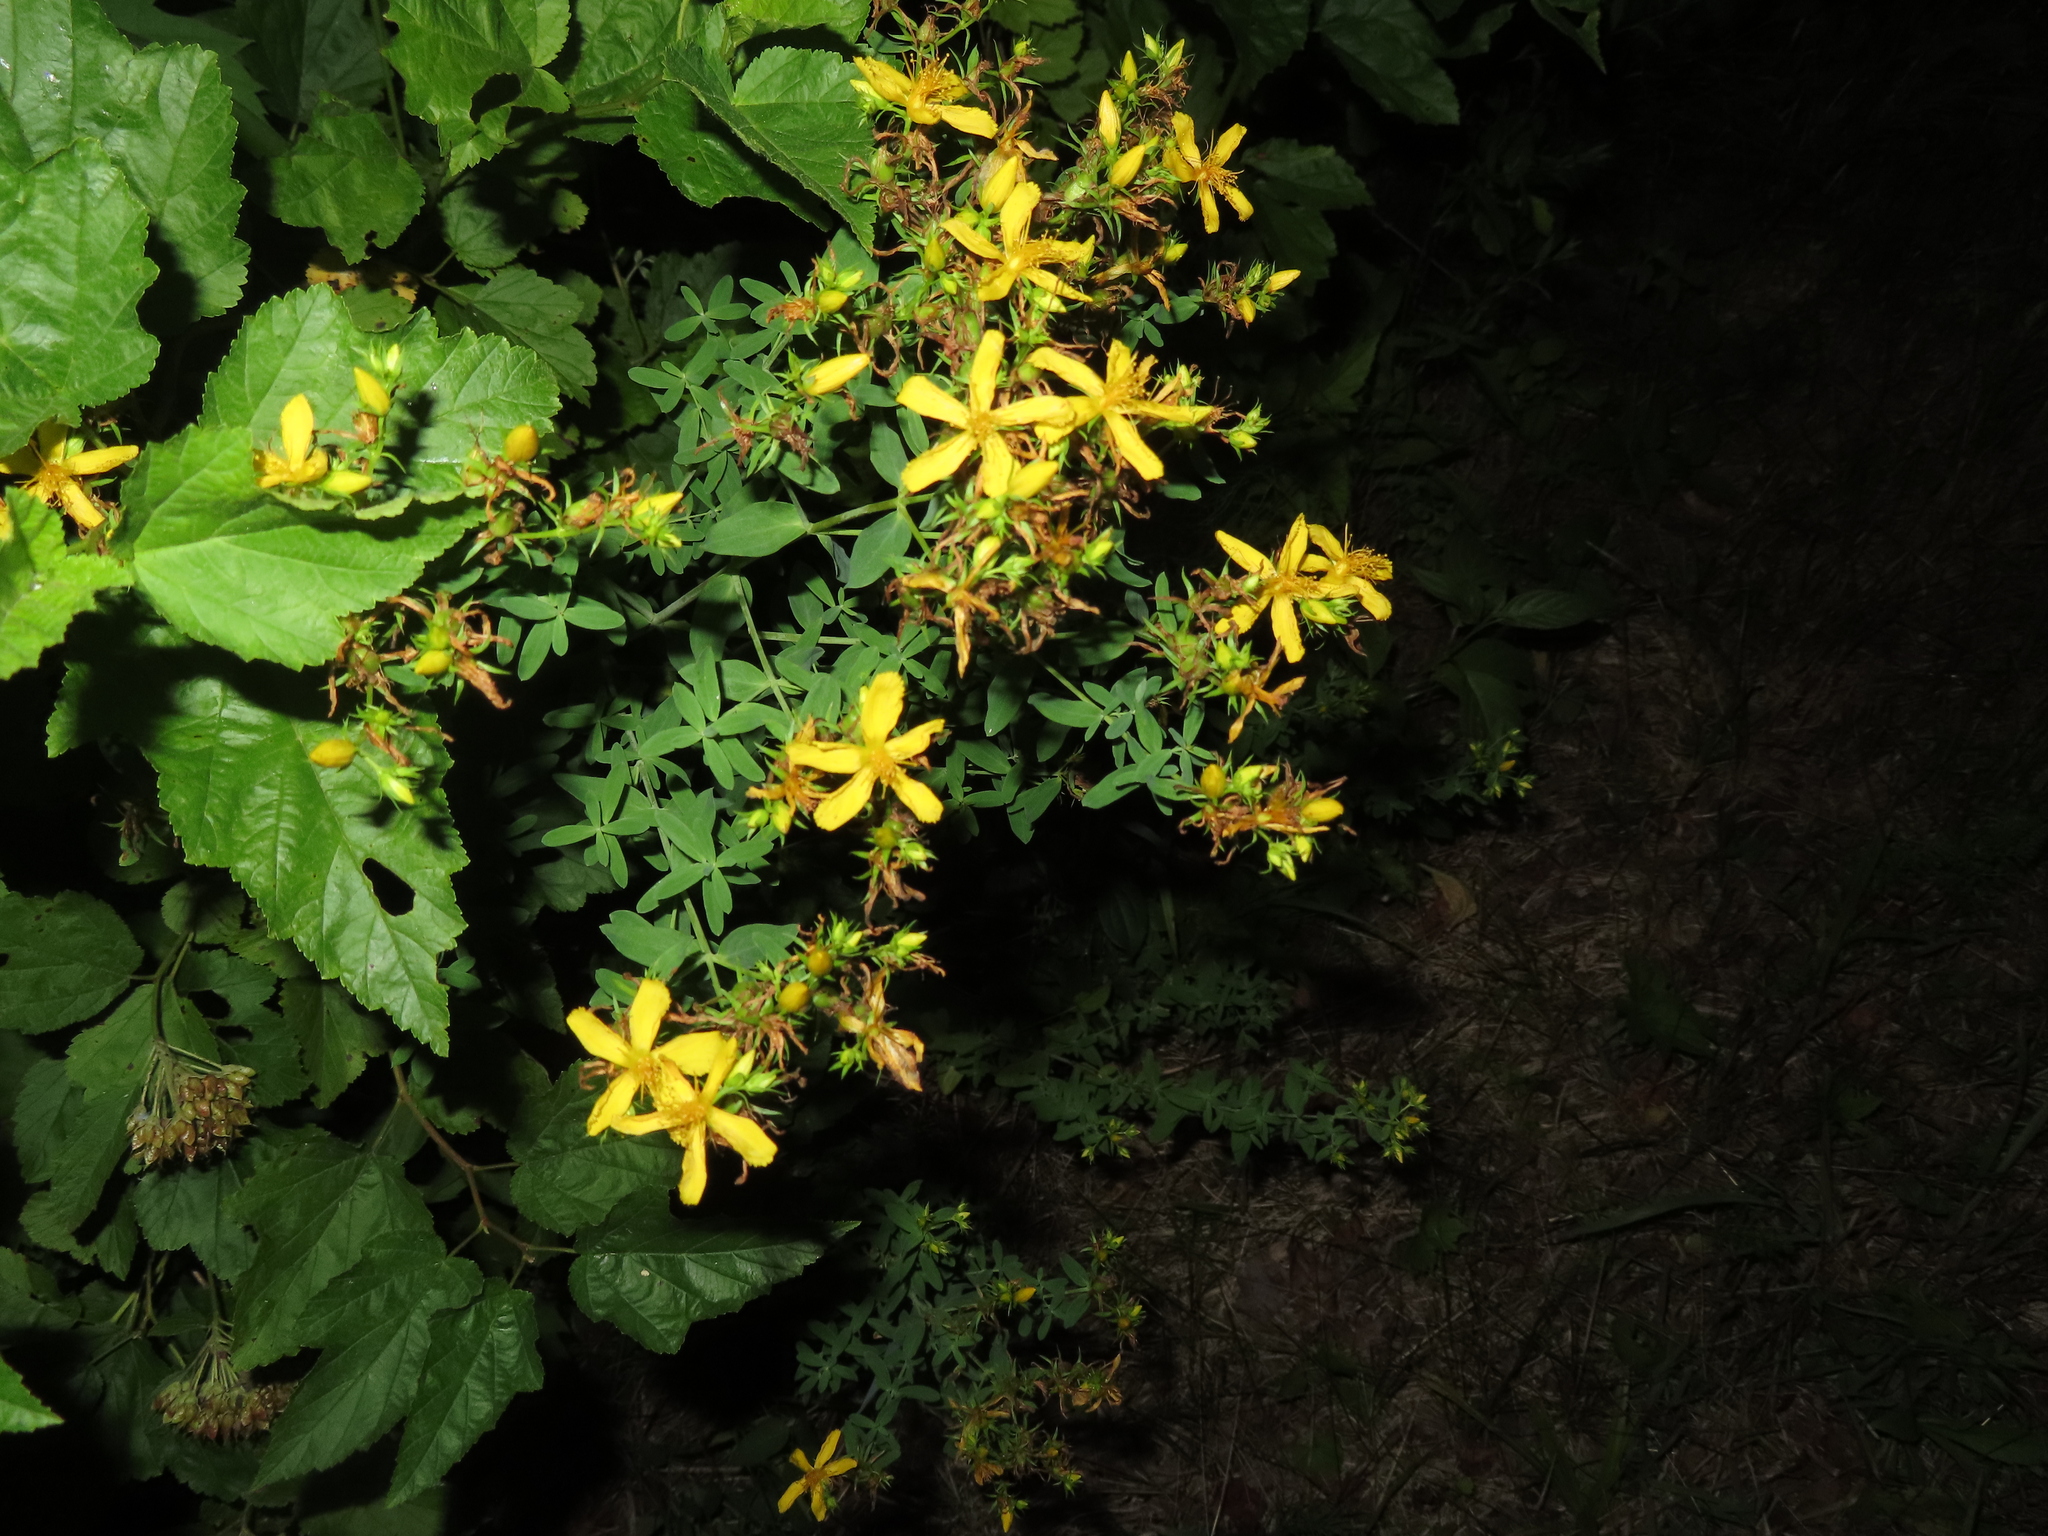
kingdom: Plantae
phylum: Tracheophyta
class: Magnoliopsida
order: Malpighiales
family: Hypericaceae
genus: Hypericum
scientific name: Hypericum perforatum
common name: Common st. johnswort
